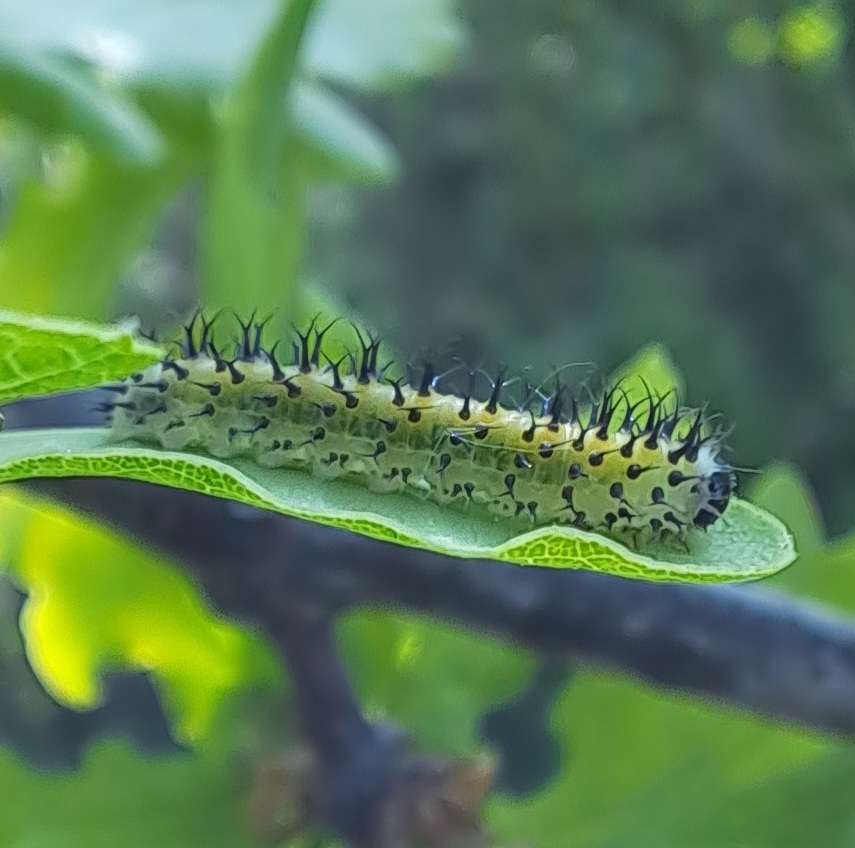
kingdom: Animalia
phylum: Arthropoda
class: Insecta
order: Hymenoptera
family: Tenthredinidae
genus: Periclista
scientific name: Periclista lineolata
